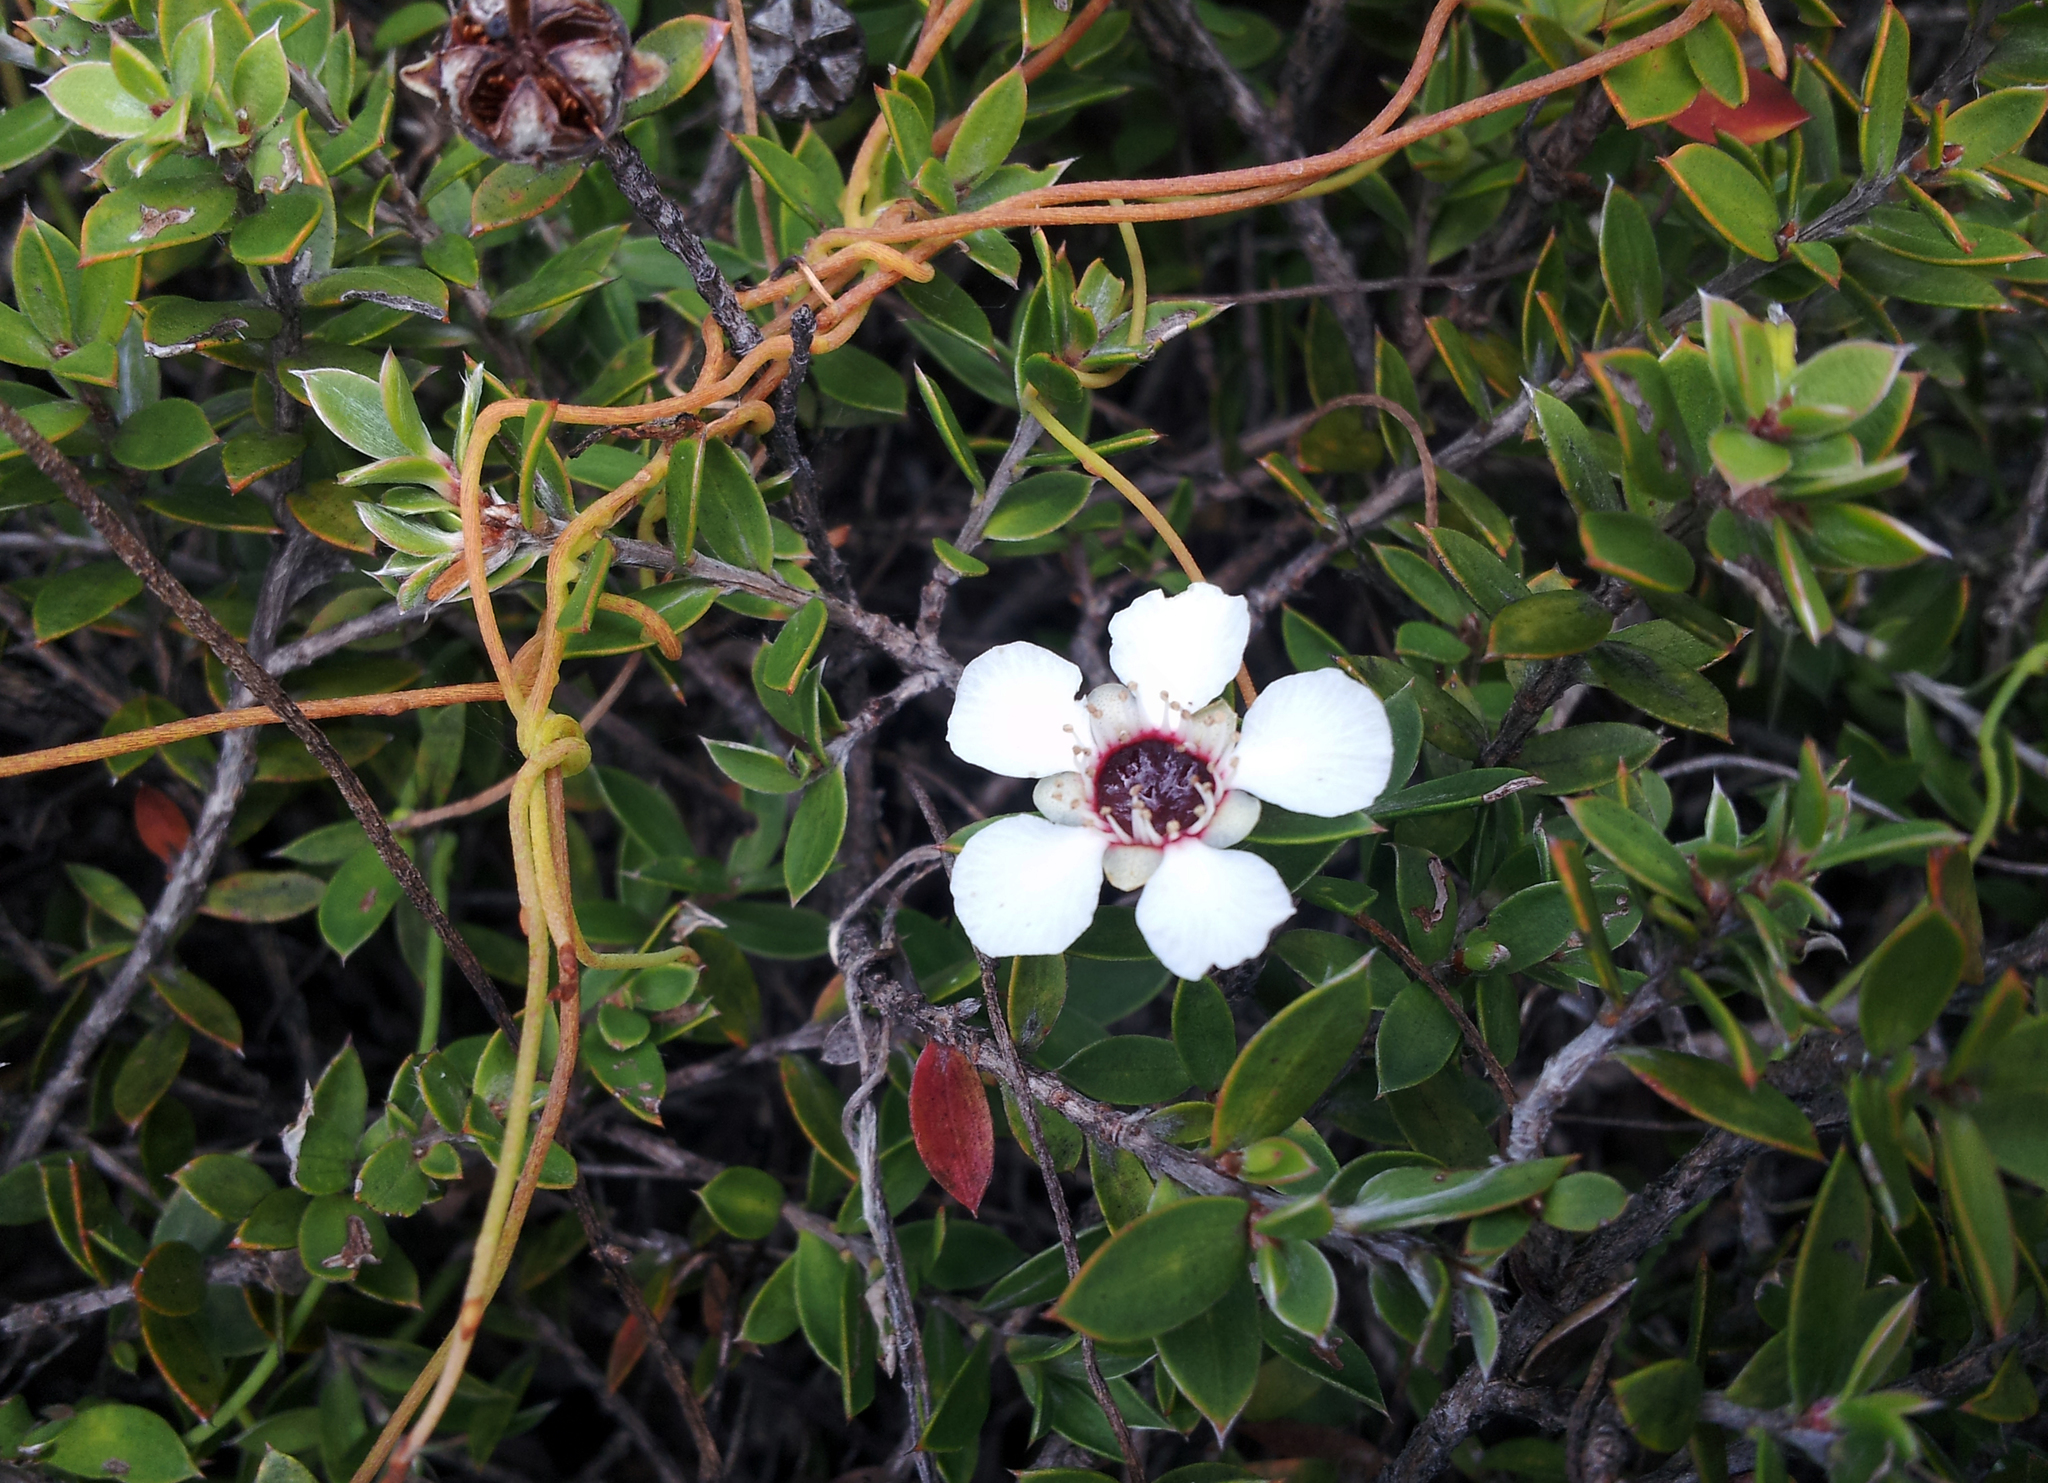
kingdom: Plantae
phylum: Tracheophyta
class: Magnoliopsida
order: Myrtales
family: Myrtaceae
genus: Leptospermum
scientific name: Leptospermum scoparium
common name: Broom tea-tree
